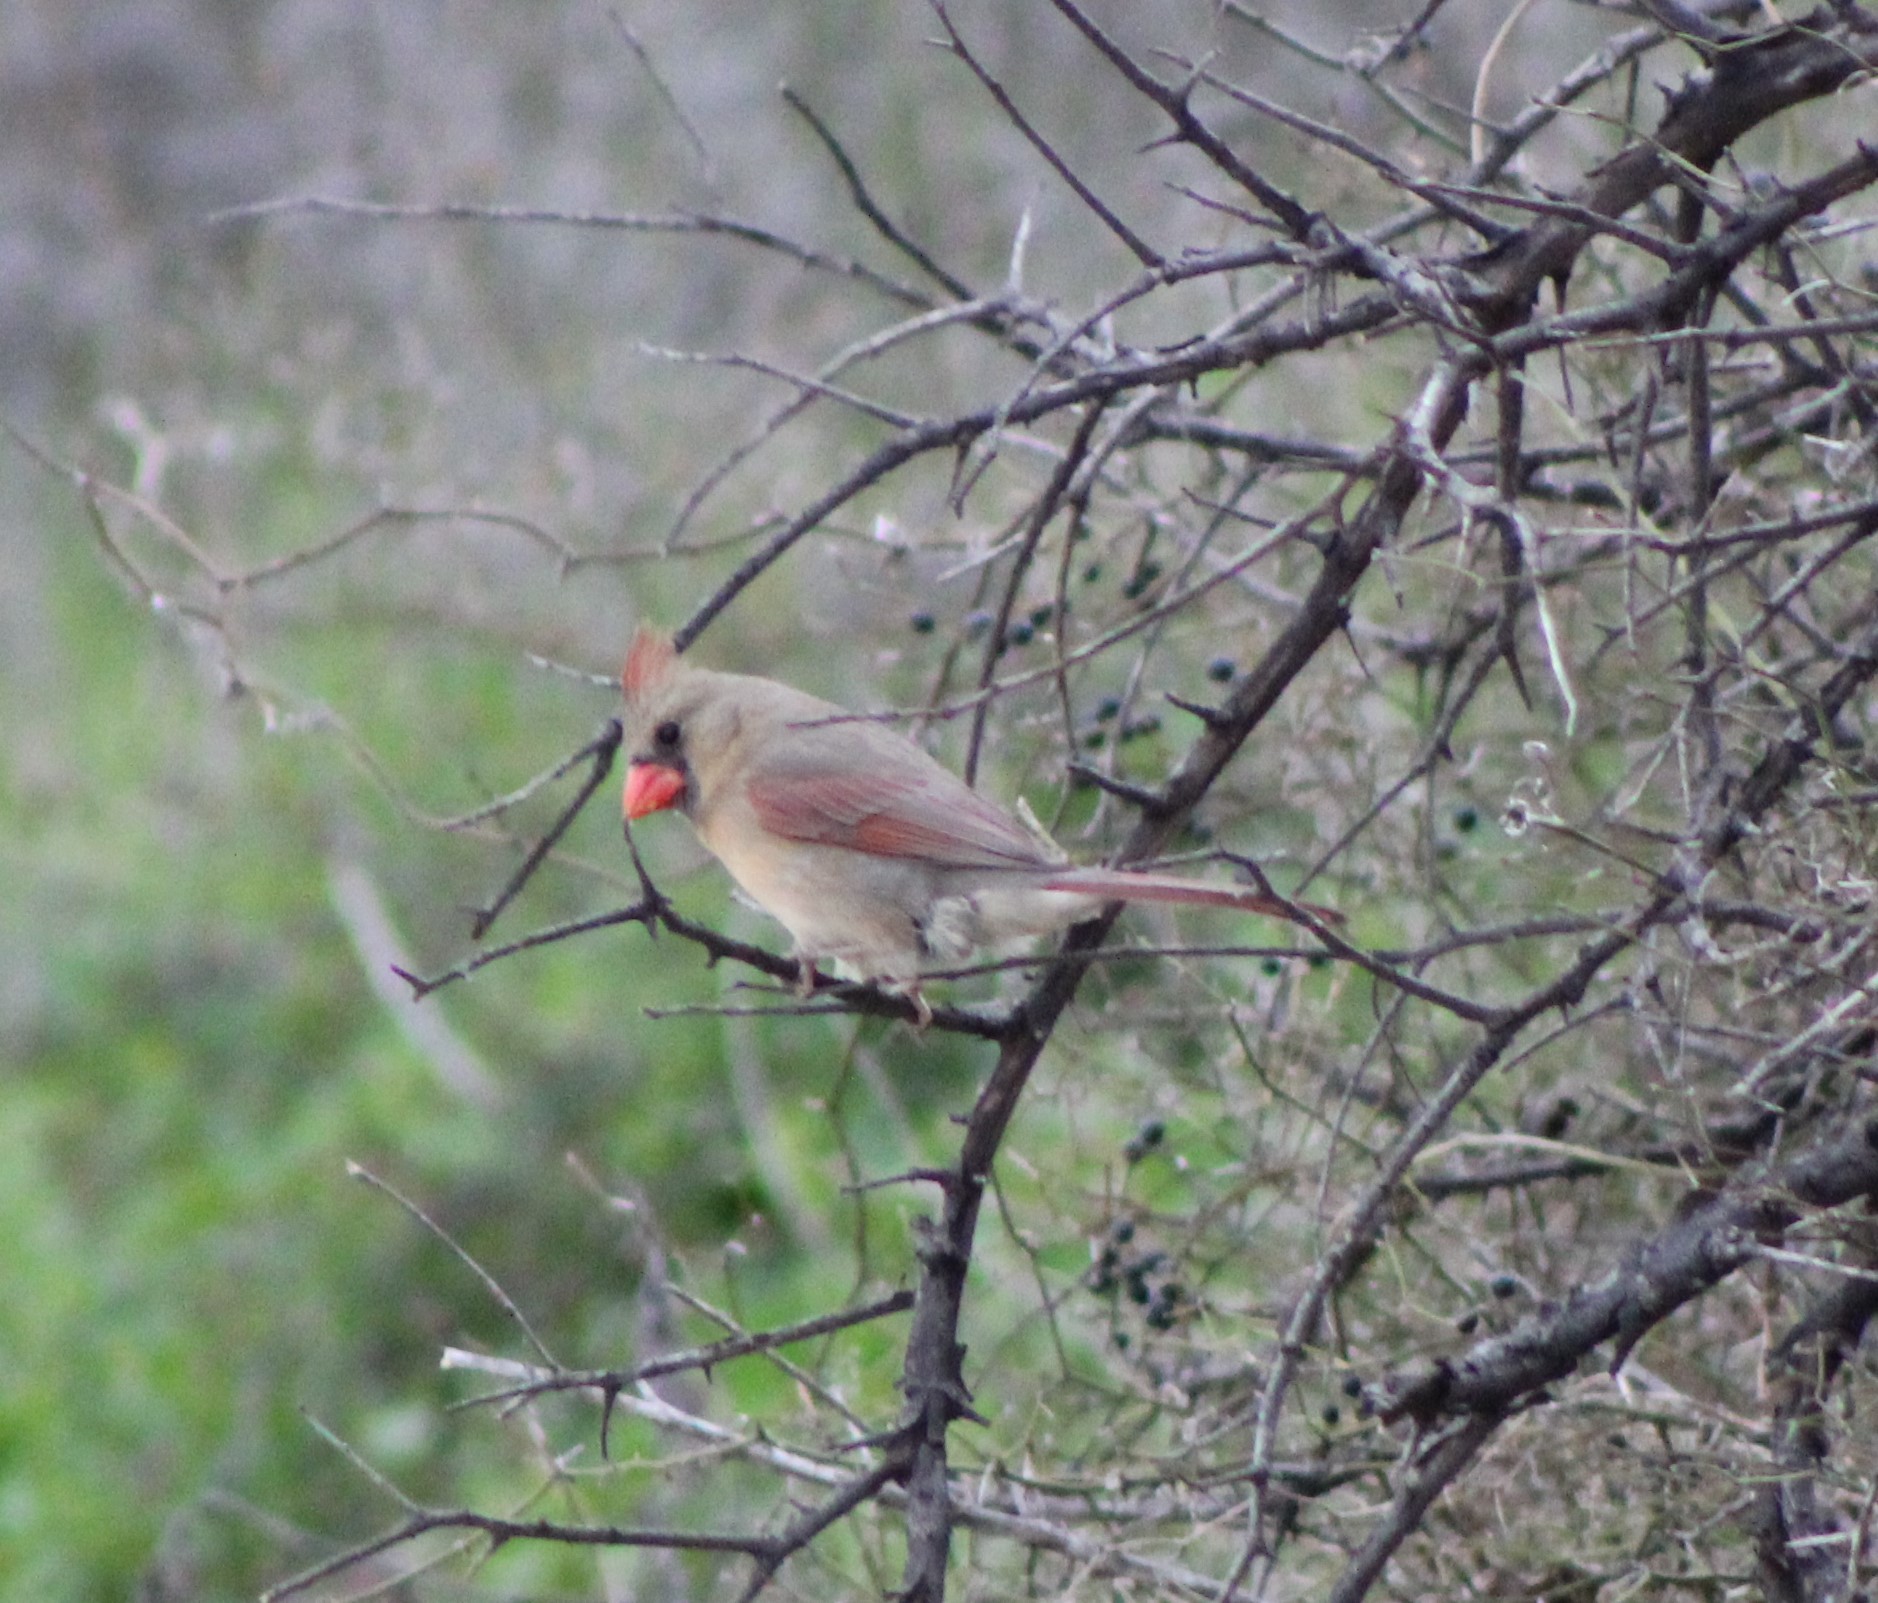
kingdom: Animalia
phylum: Chordata
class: Aves
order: Passeriformes
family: Cardinalidae
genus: Cardinalis
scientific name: Cardinalis cardinalis
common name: Northern cardinal
